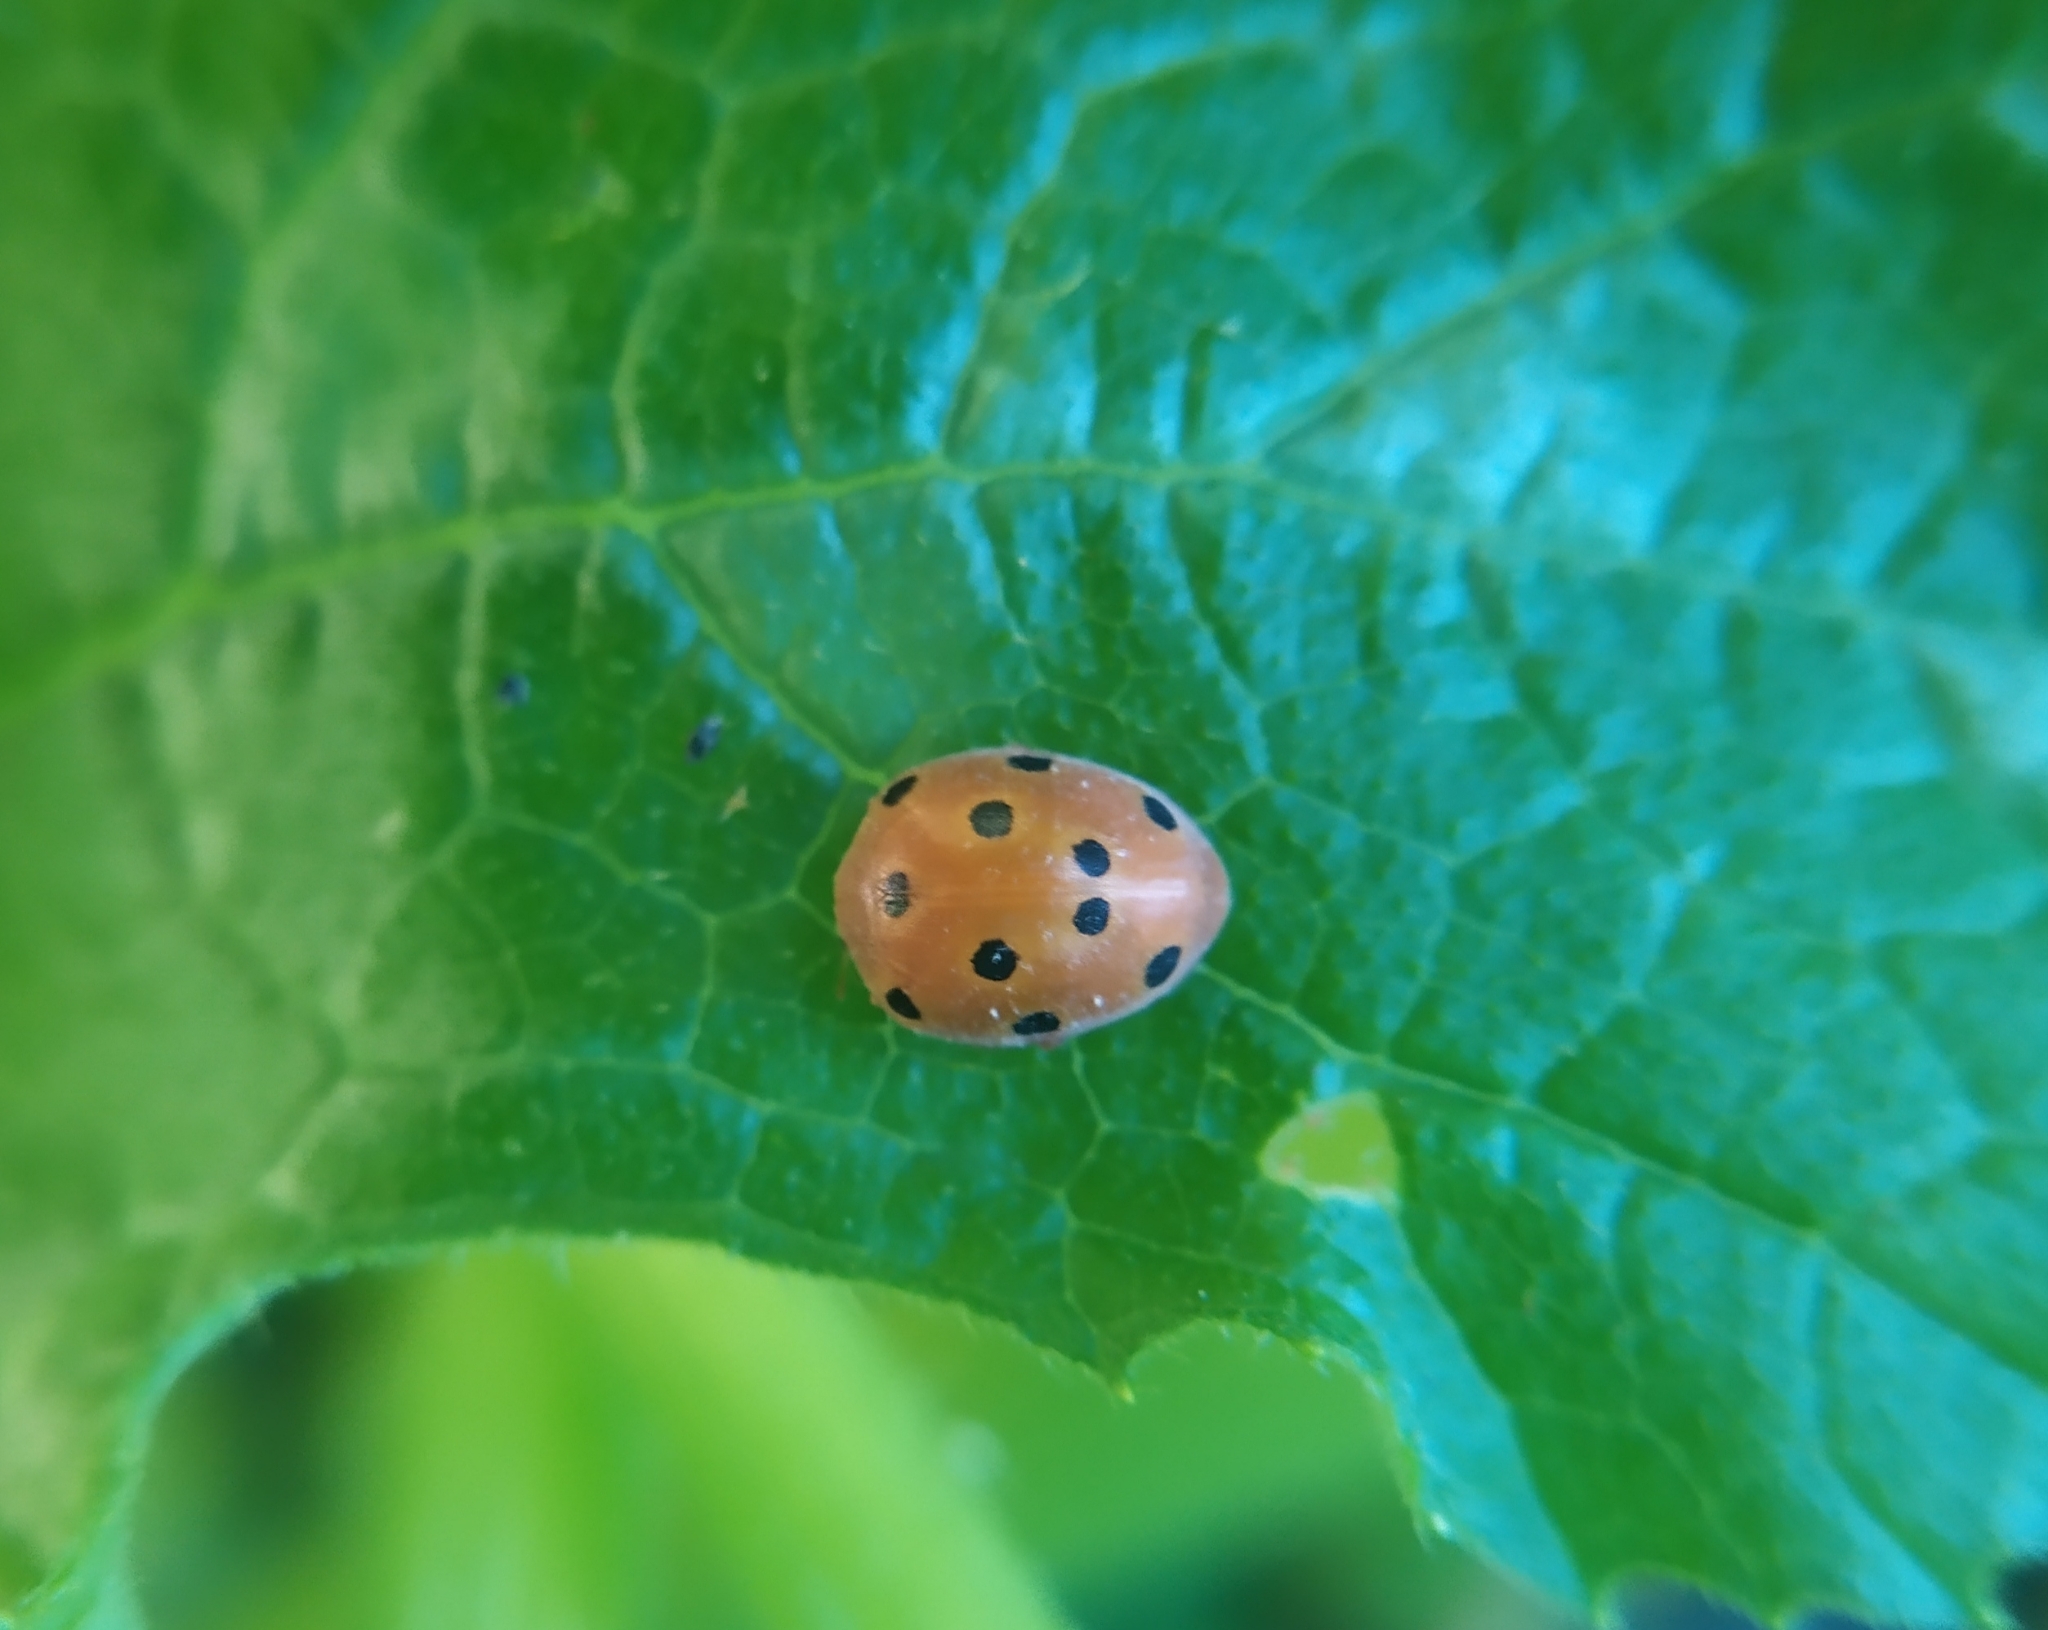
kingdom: Animalia
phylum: Arthropoda
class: Insecta
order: Coleoptera
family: Coccinellidae
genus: Henosepilachna
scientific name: Henosepilachna argus
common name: Bryony ladybird
